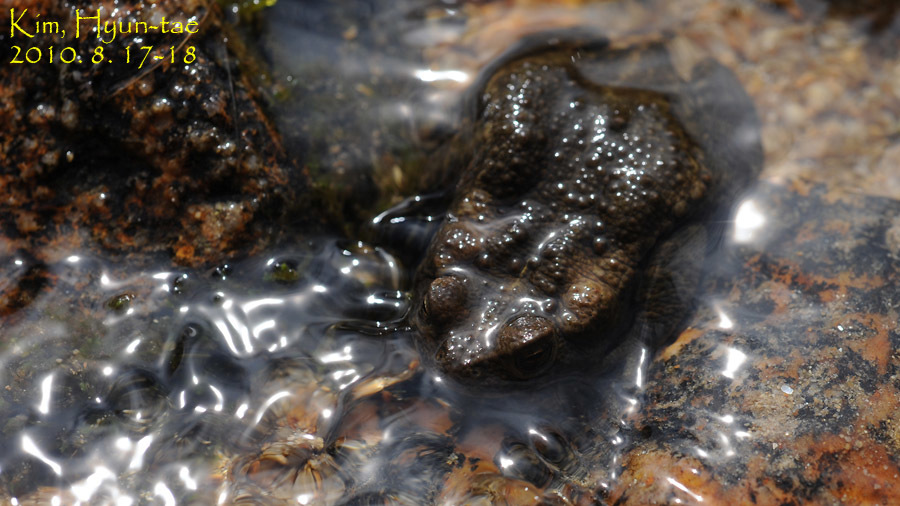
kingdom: Animalia
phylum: Chordata
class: Amphibia
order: Anura
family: Bufonidae
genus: Bufo
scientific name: Bufo stejnegeri
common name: Water toad
